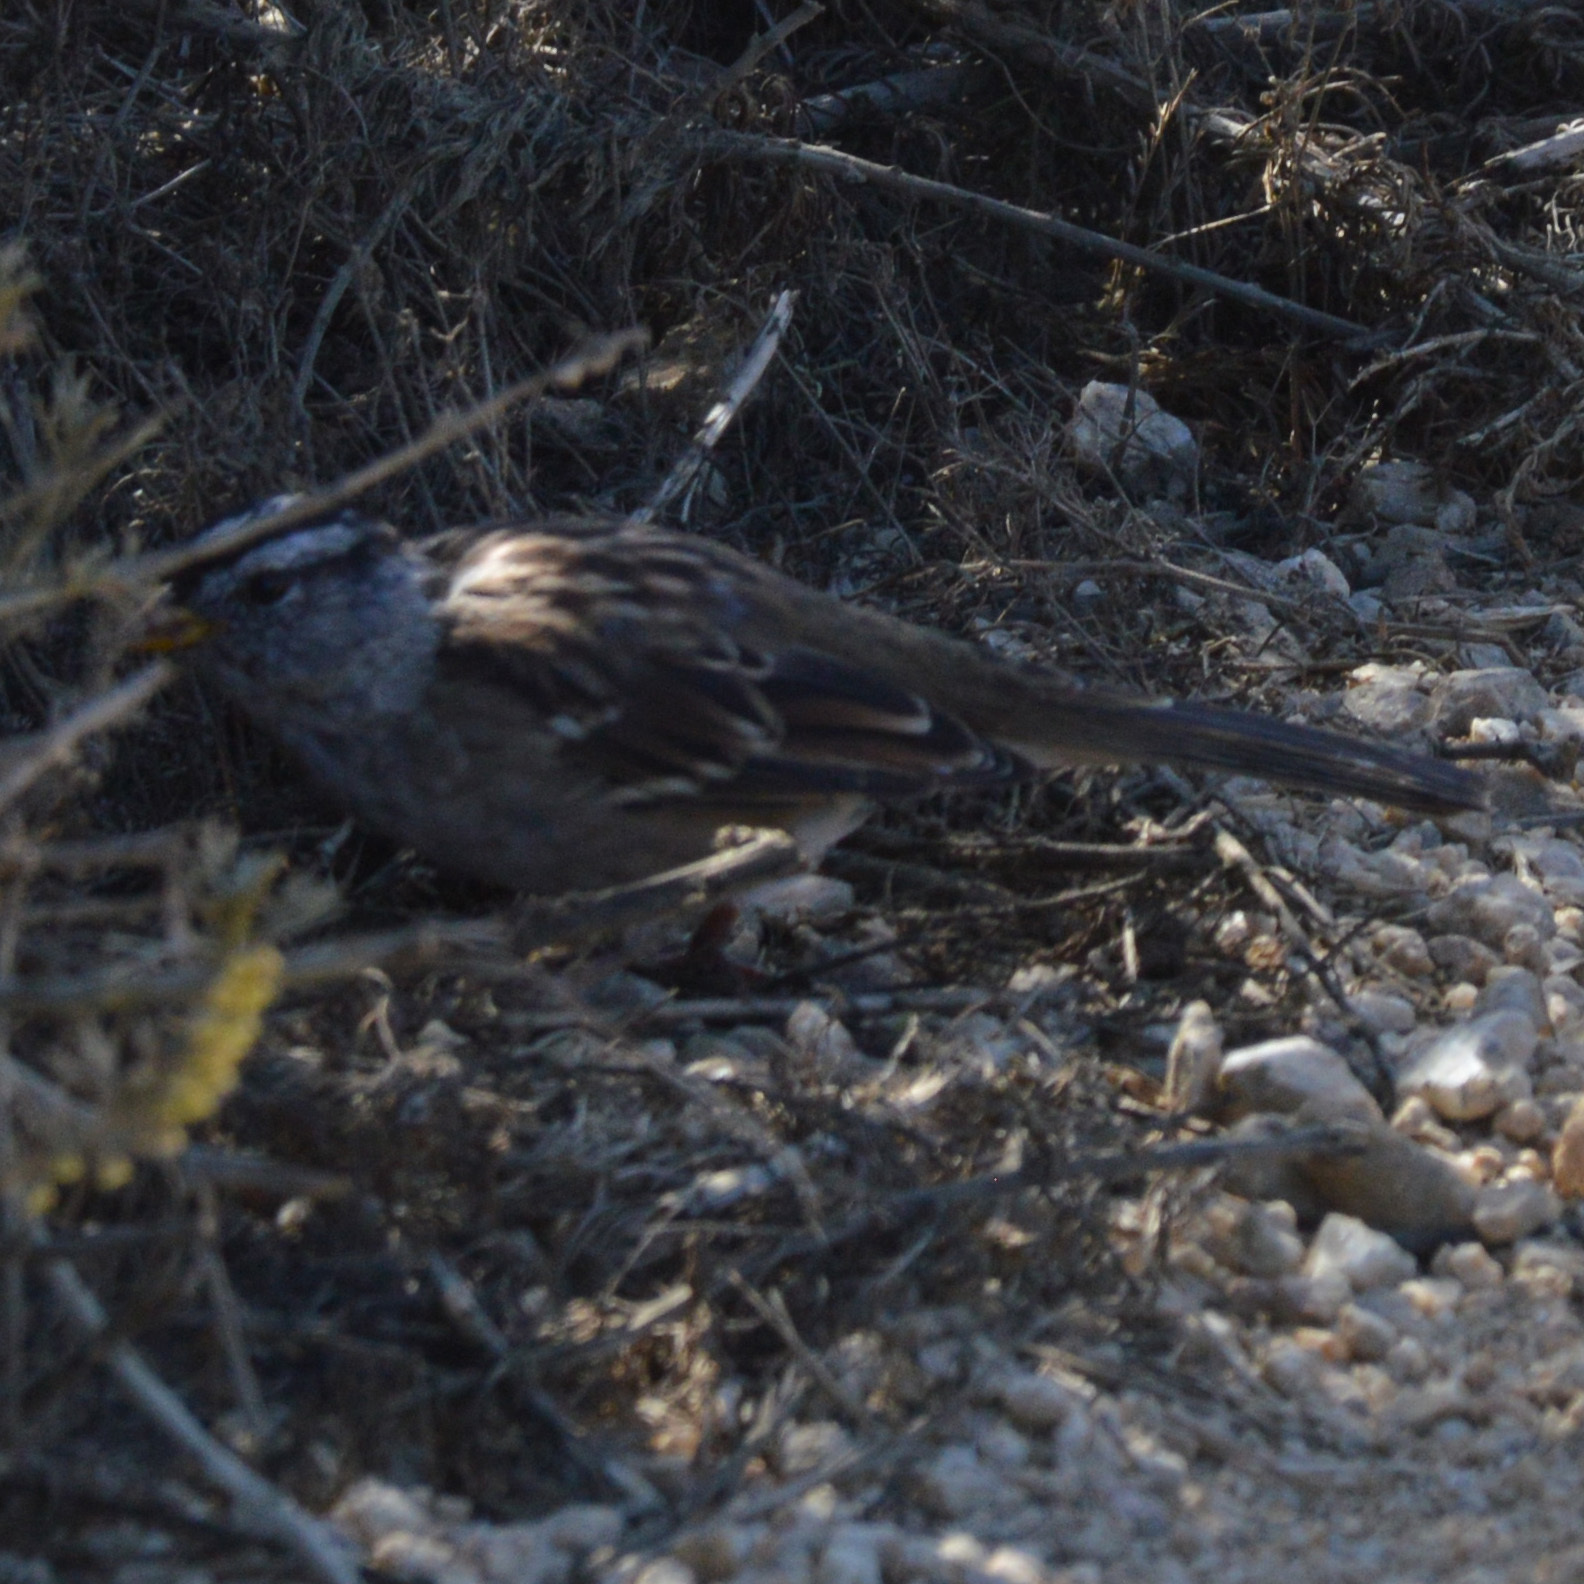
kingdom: Animalia
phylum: Chordata
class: Aves
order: Passeriformes
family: Passerellidae
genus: Zonotrichia
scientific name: Zonotrichia leucophrys
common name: White-crowned sparrow
